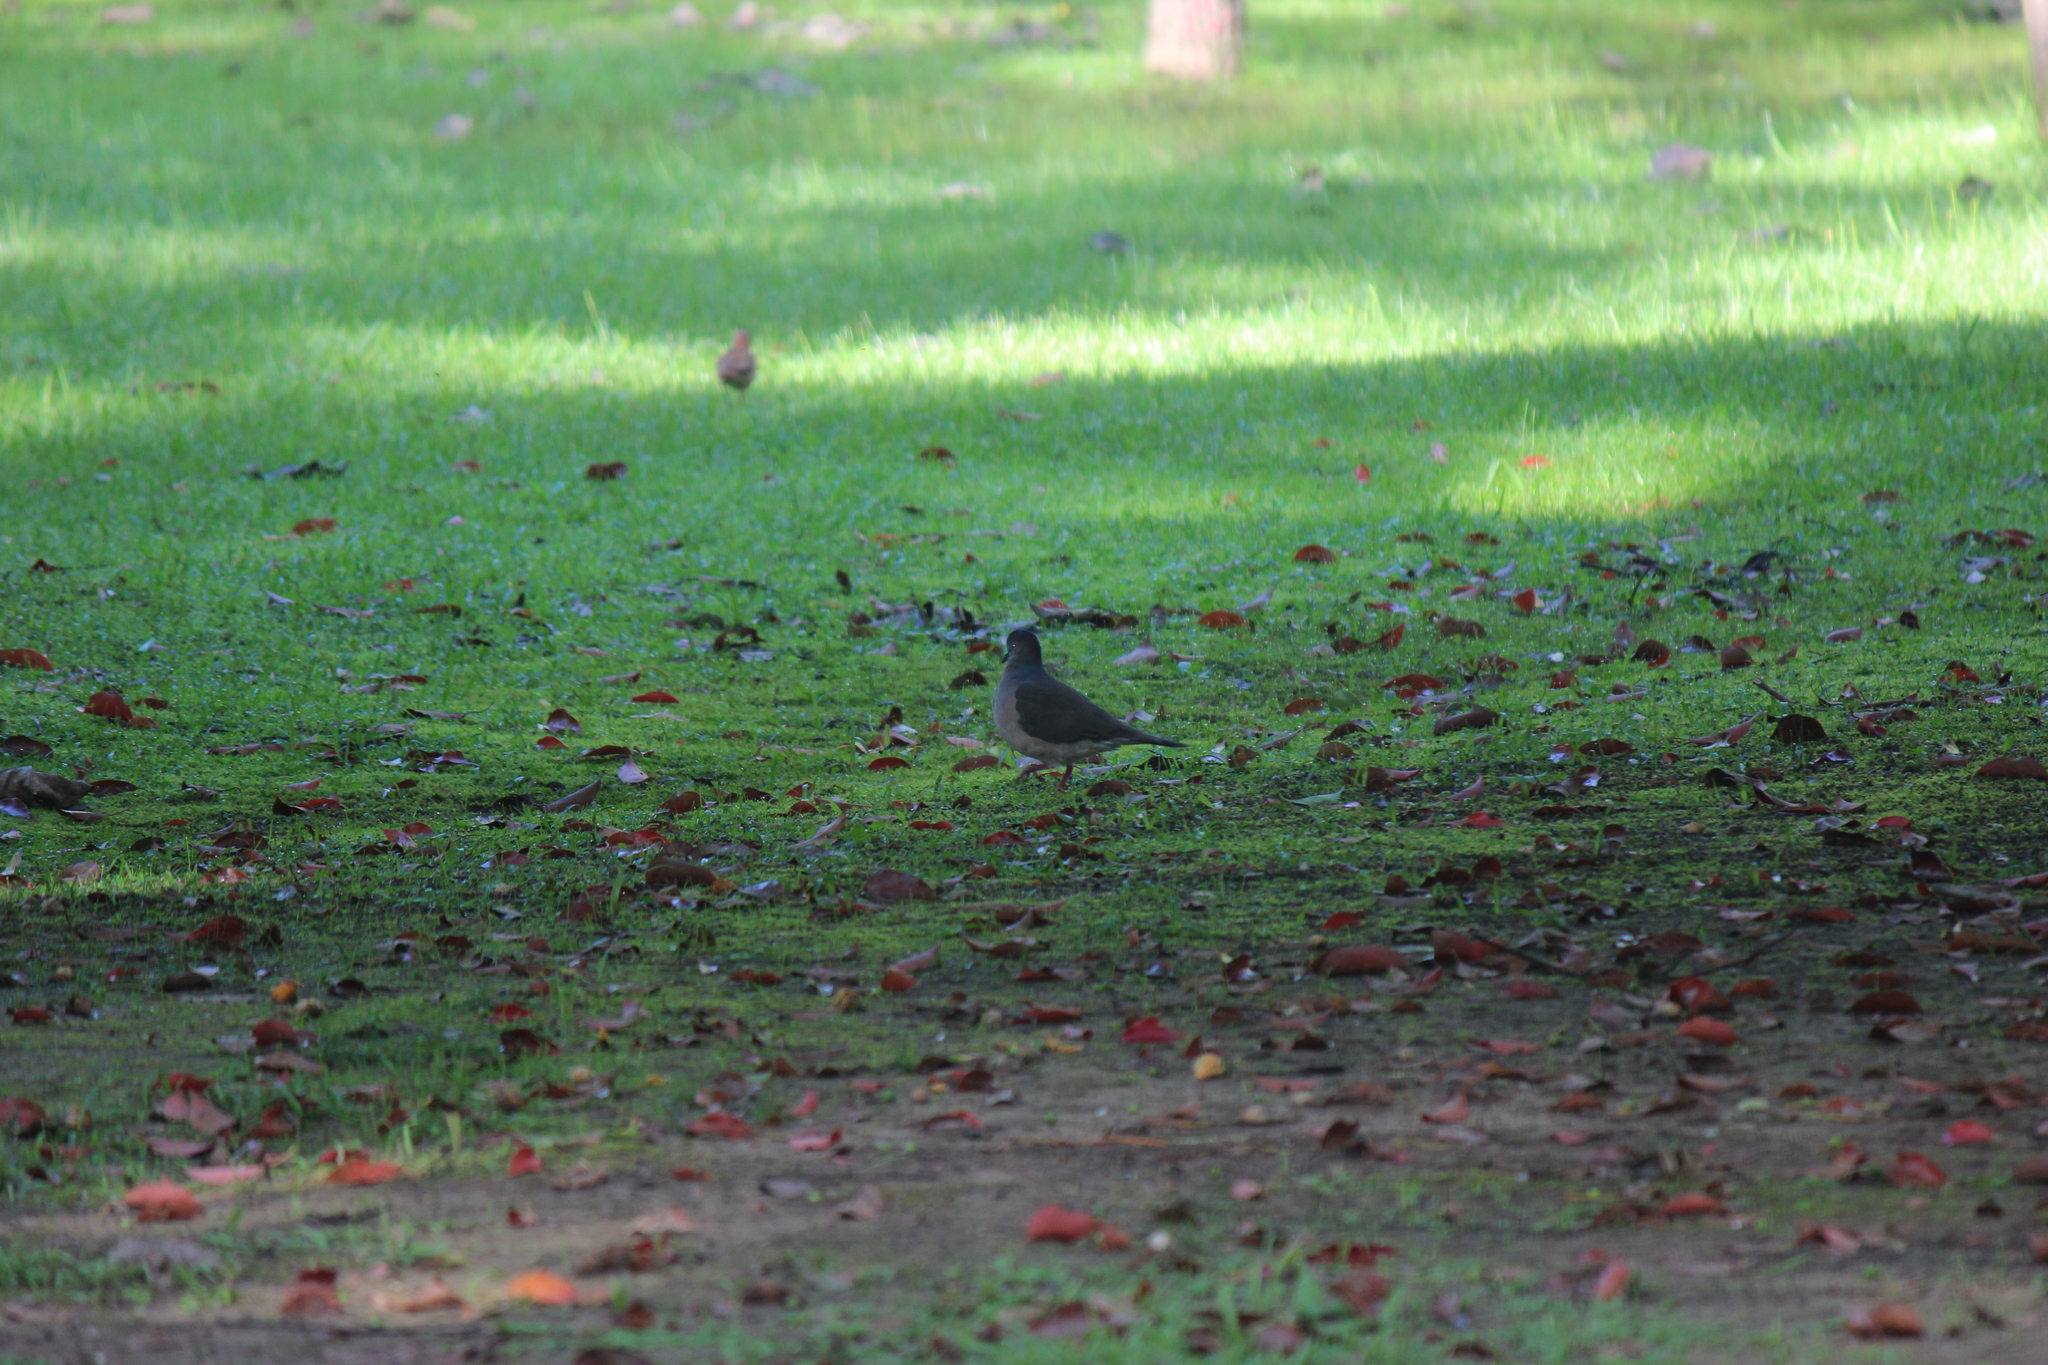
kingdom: Animalia
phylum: Chordata
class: Aves
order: Columbiformes
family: Columbidae
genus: Leptotila
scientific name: Leptotila verreauxi
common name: White-tipped dove
